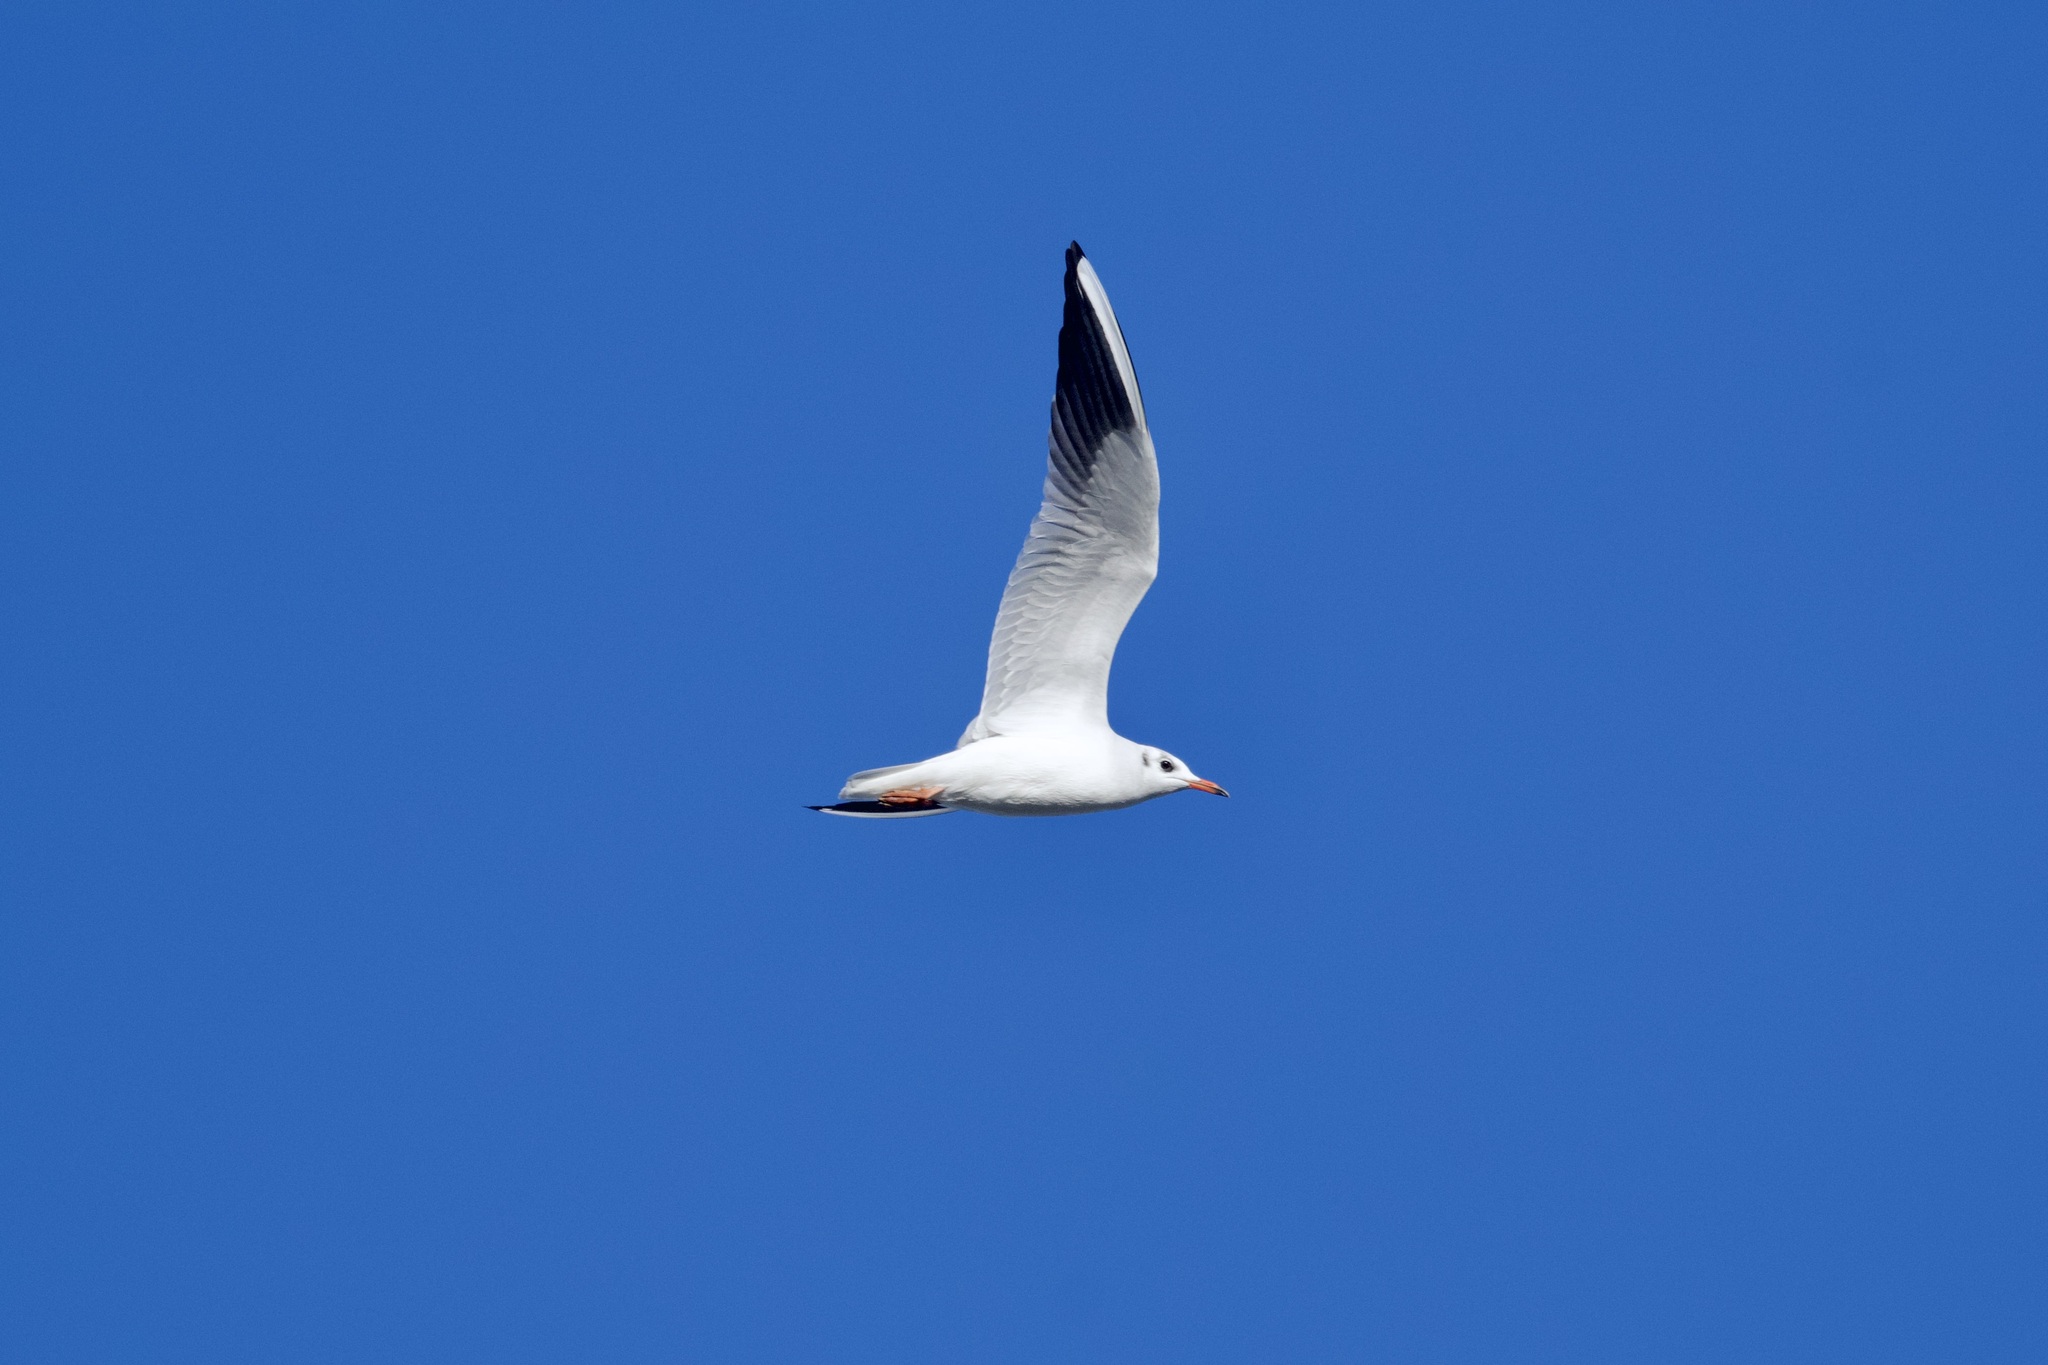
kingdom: Animalia
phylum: Chordata
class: Aves
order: Charadriiformes
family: Laridae
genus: Chroicocephalus
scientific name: Chroicocephalus ridibundus
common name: Black-headed gull
